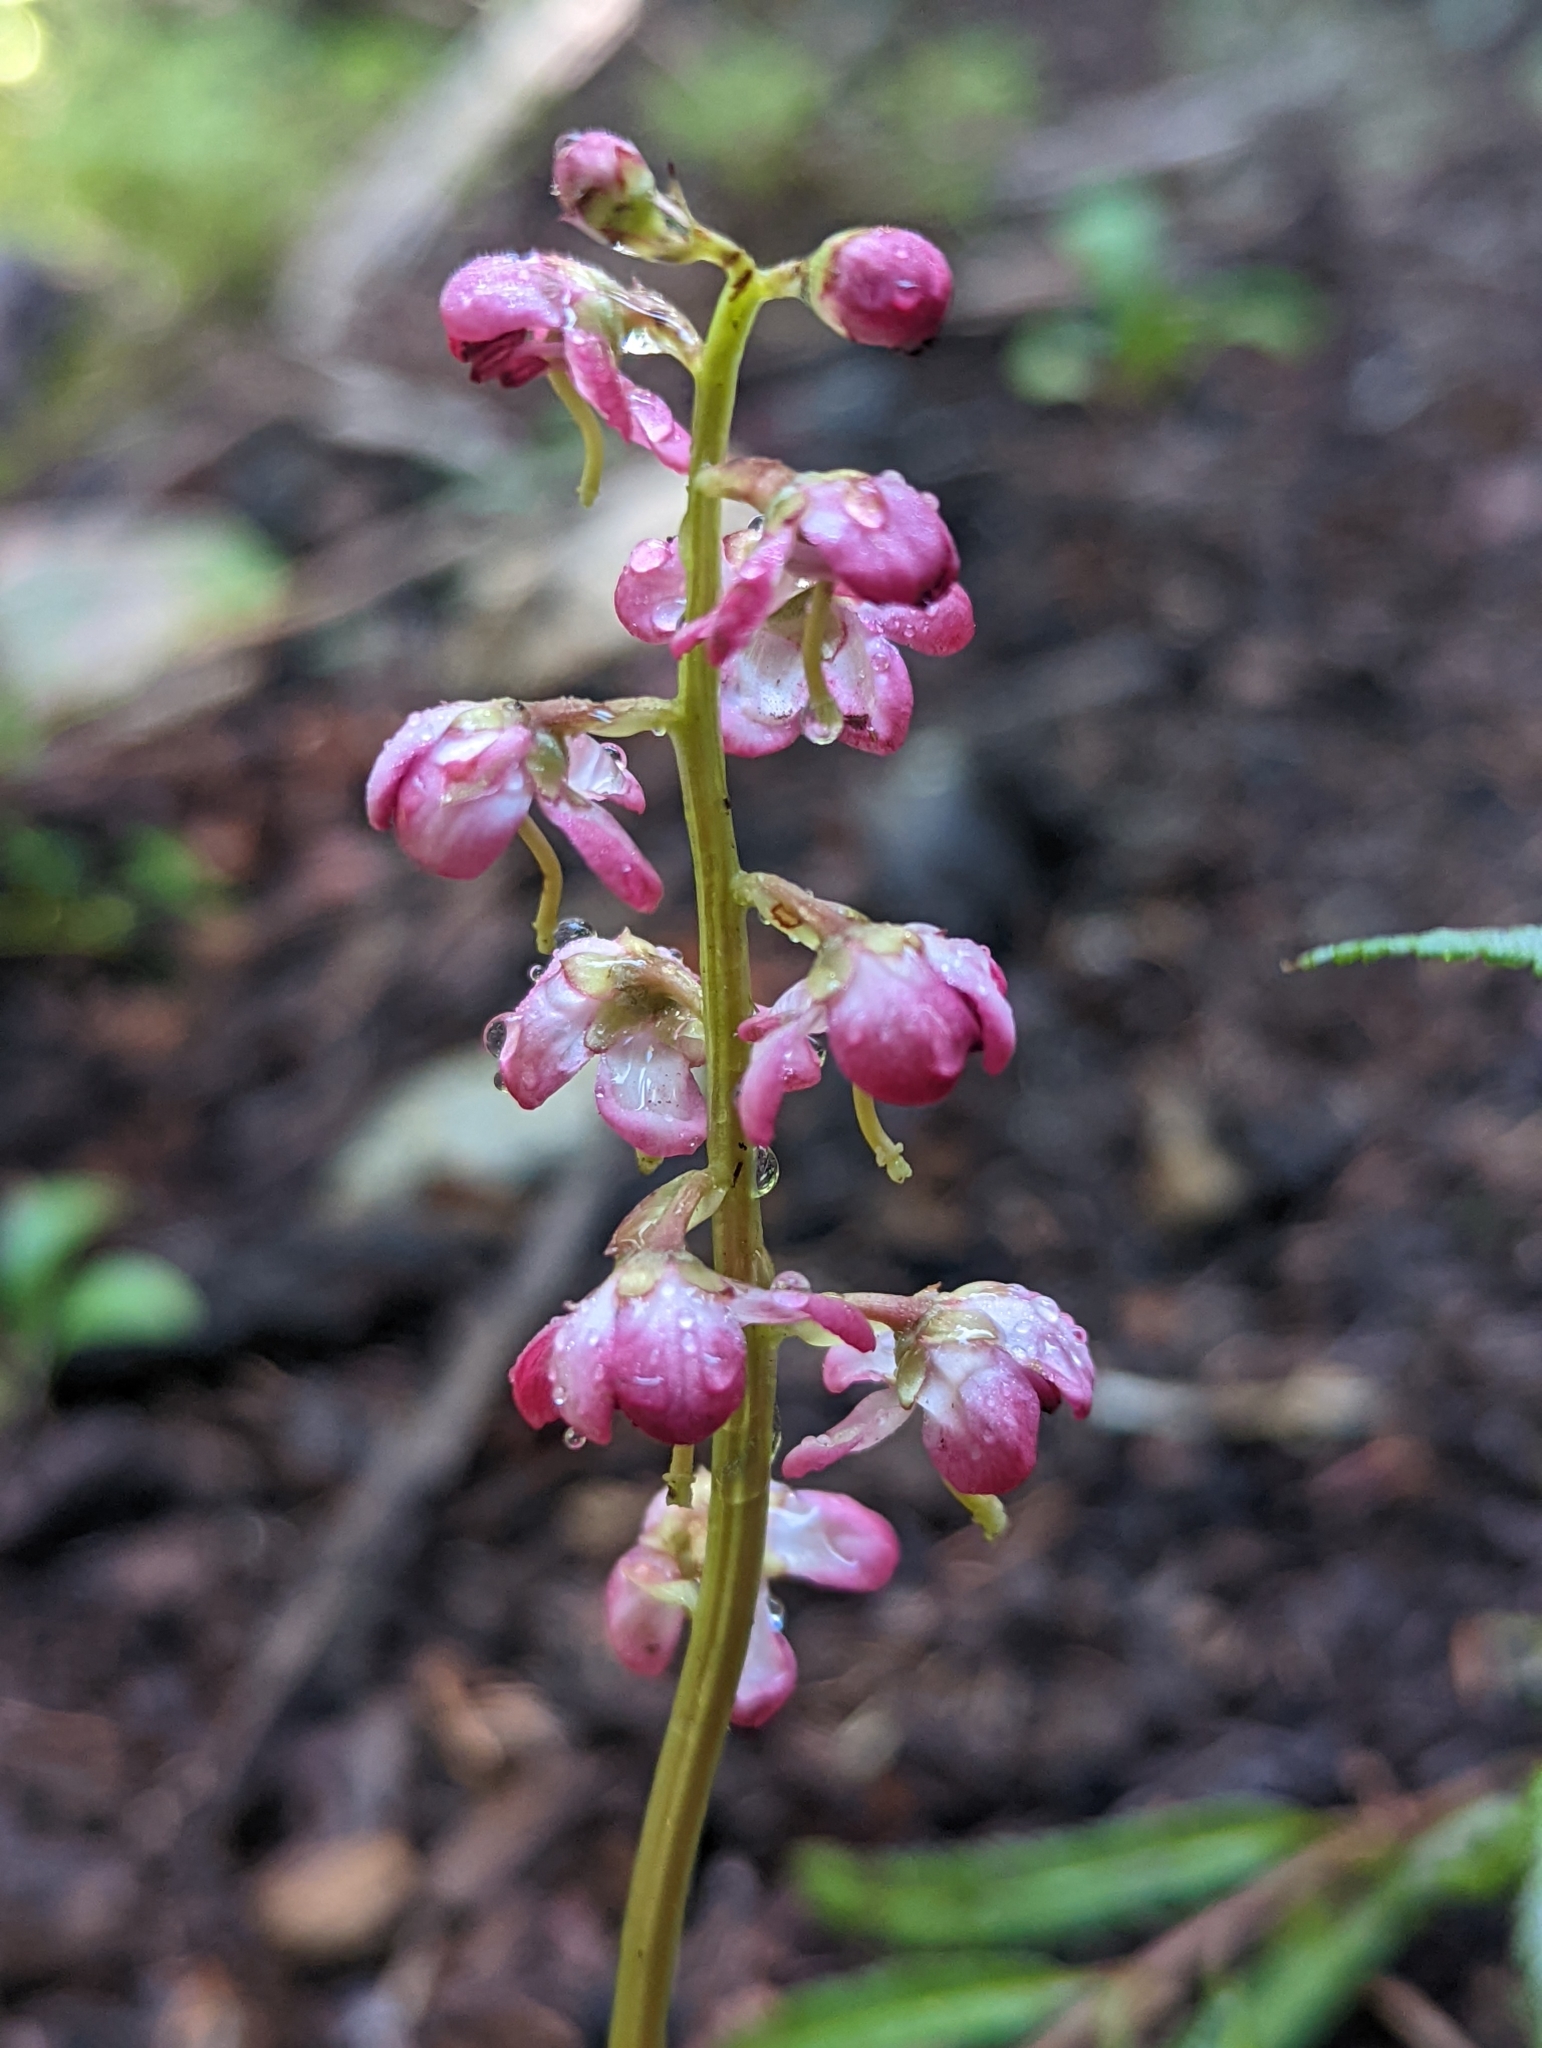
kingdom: Plantae
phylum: Tracheophyta
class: Magnoliopsida
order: Ericales
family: Ericaceae
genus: Pyrola
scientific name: Pyrola asarifolia
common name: Bog wintergreen
